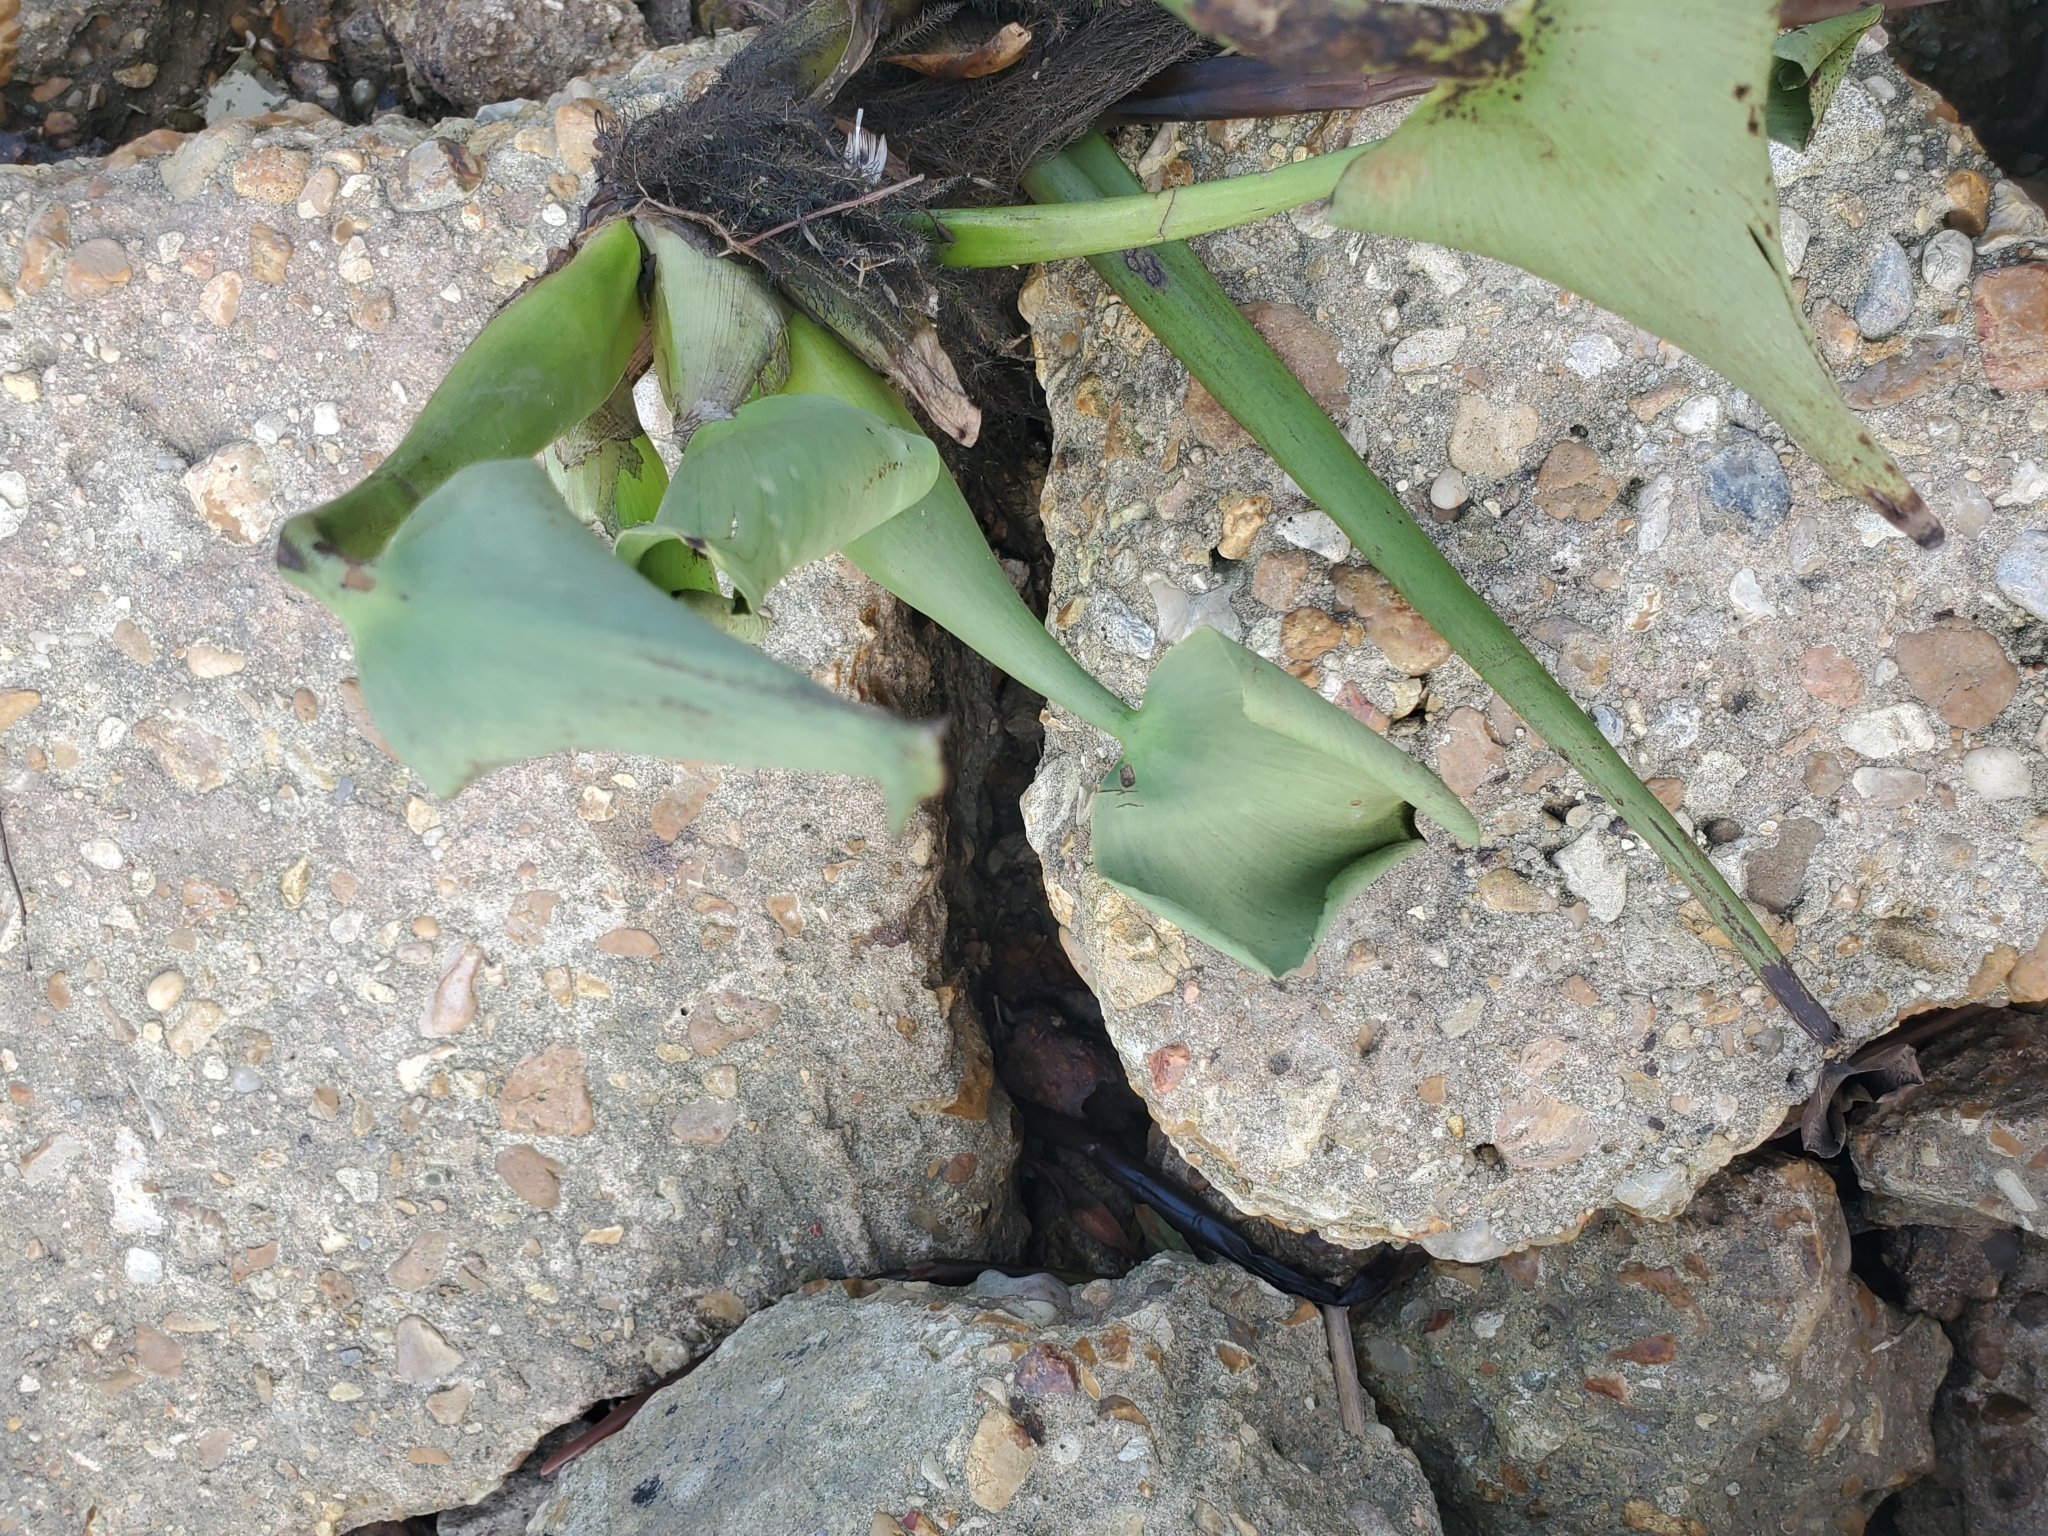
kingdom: Plantae
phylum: Tracheophyta
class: Liliopsida
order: Commelinales
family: Pontederiaceae
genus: Pontederia
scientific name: Pontederia crassipes
